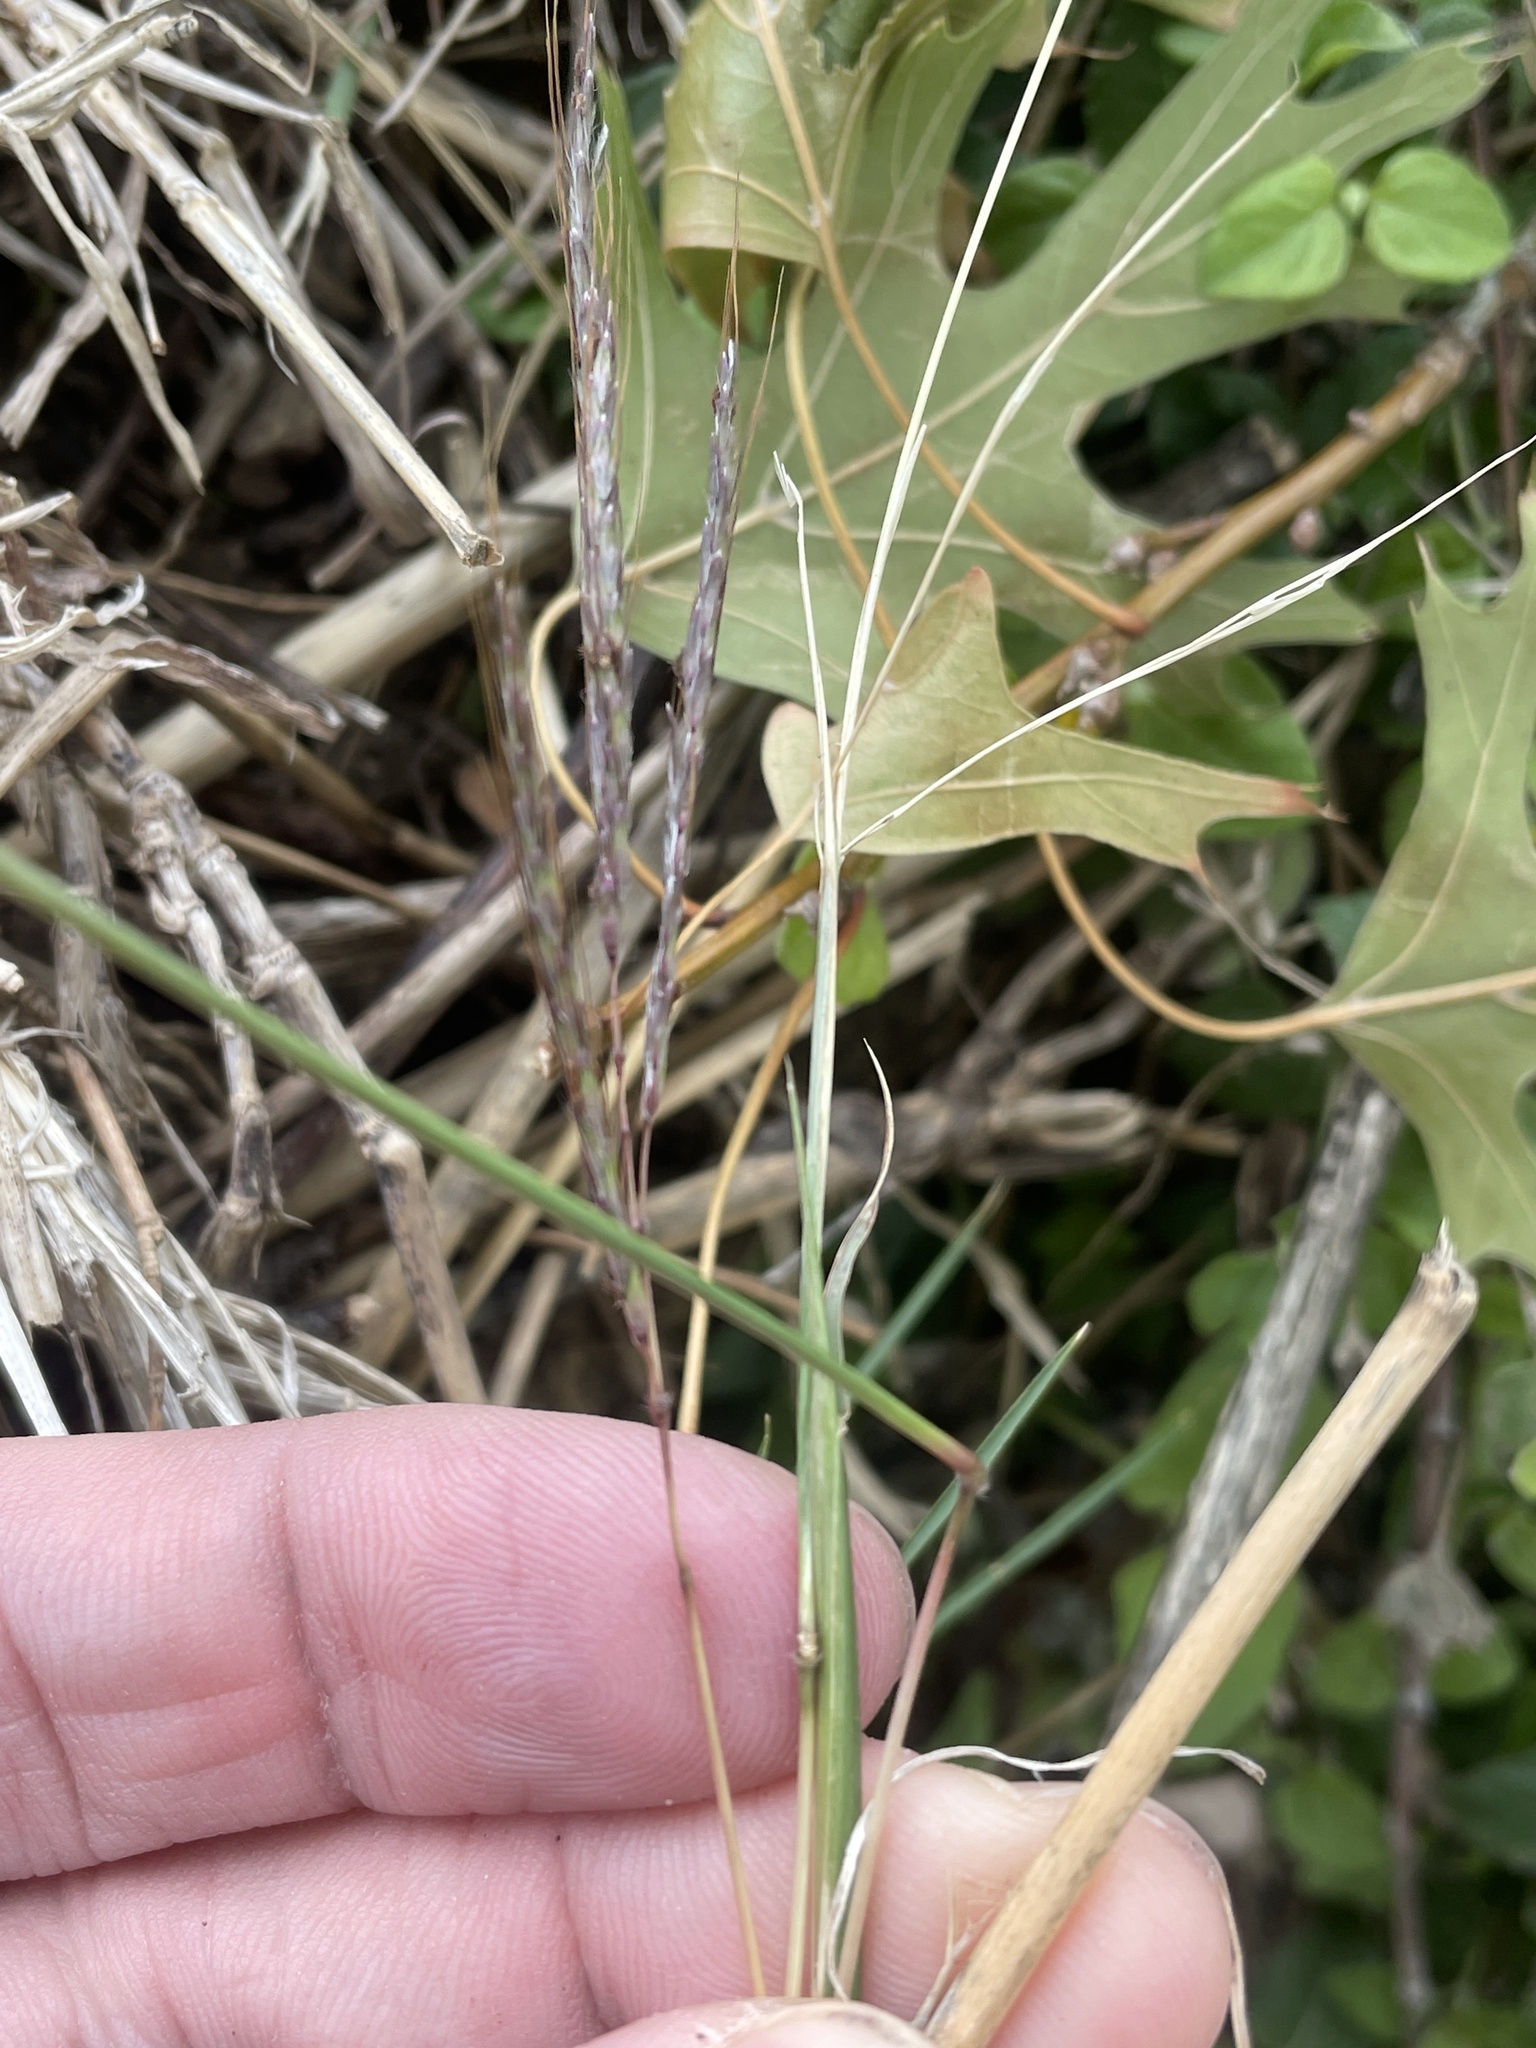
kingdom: Plantae
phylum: Tracheophyta
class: Liliopsida
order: Poales
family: Poaceae
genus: Bothriochloa
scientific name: Bothriochloa ischaemum
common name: Yellow bluestem
